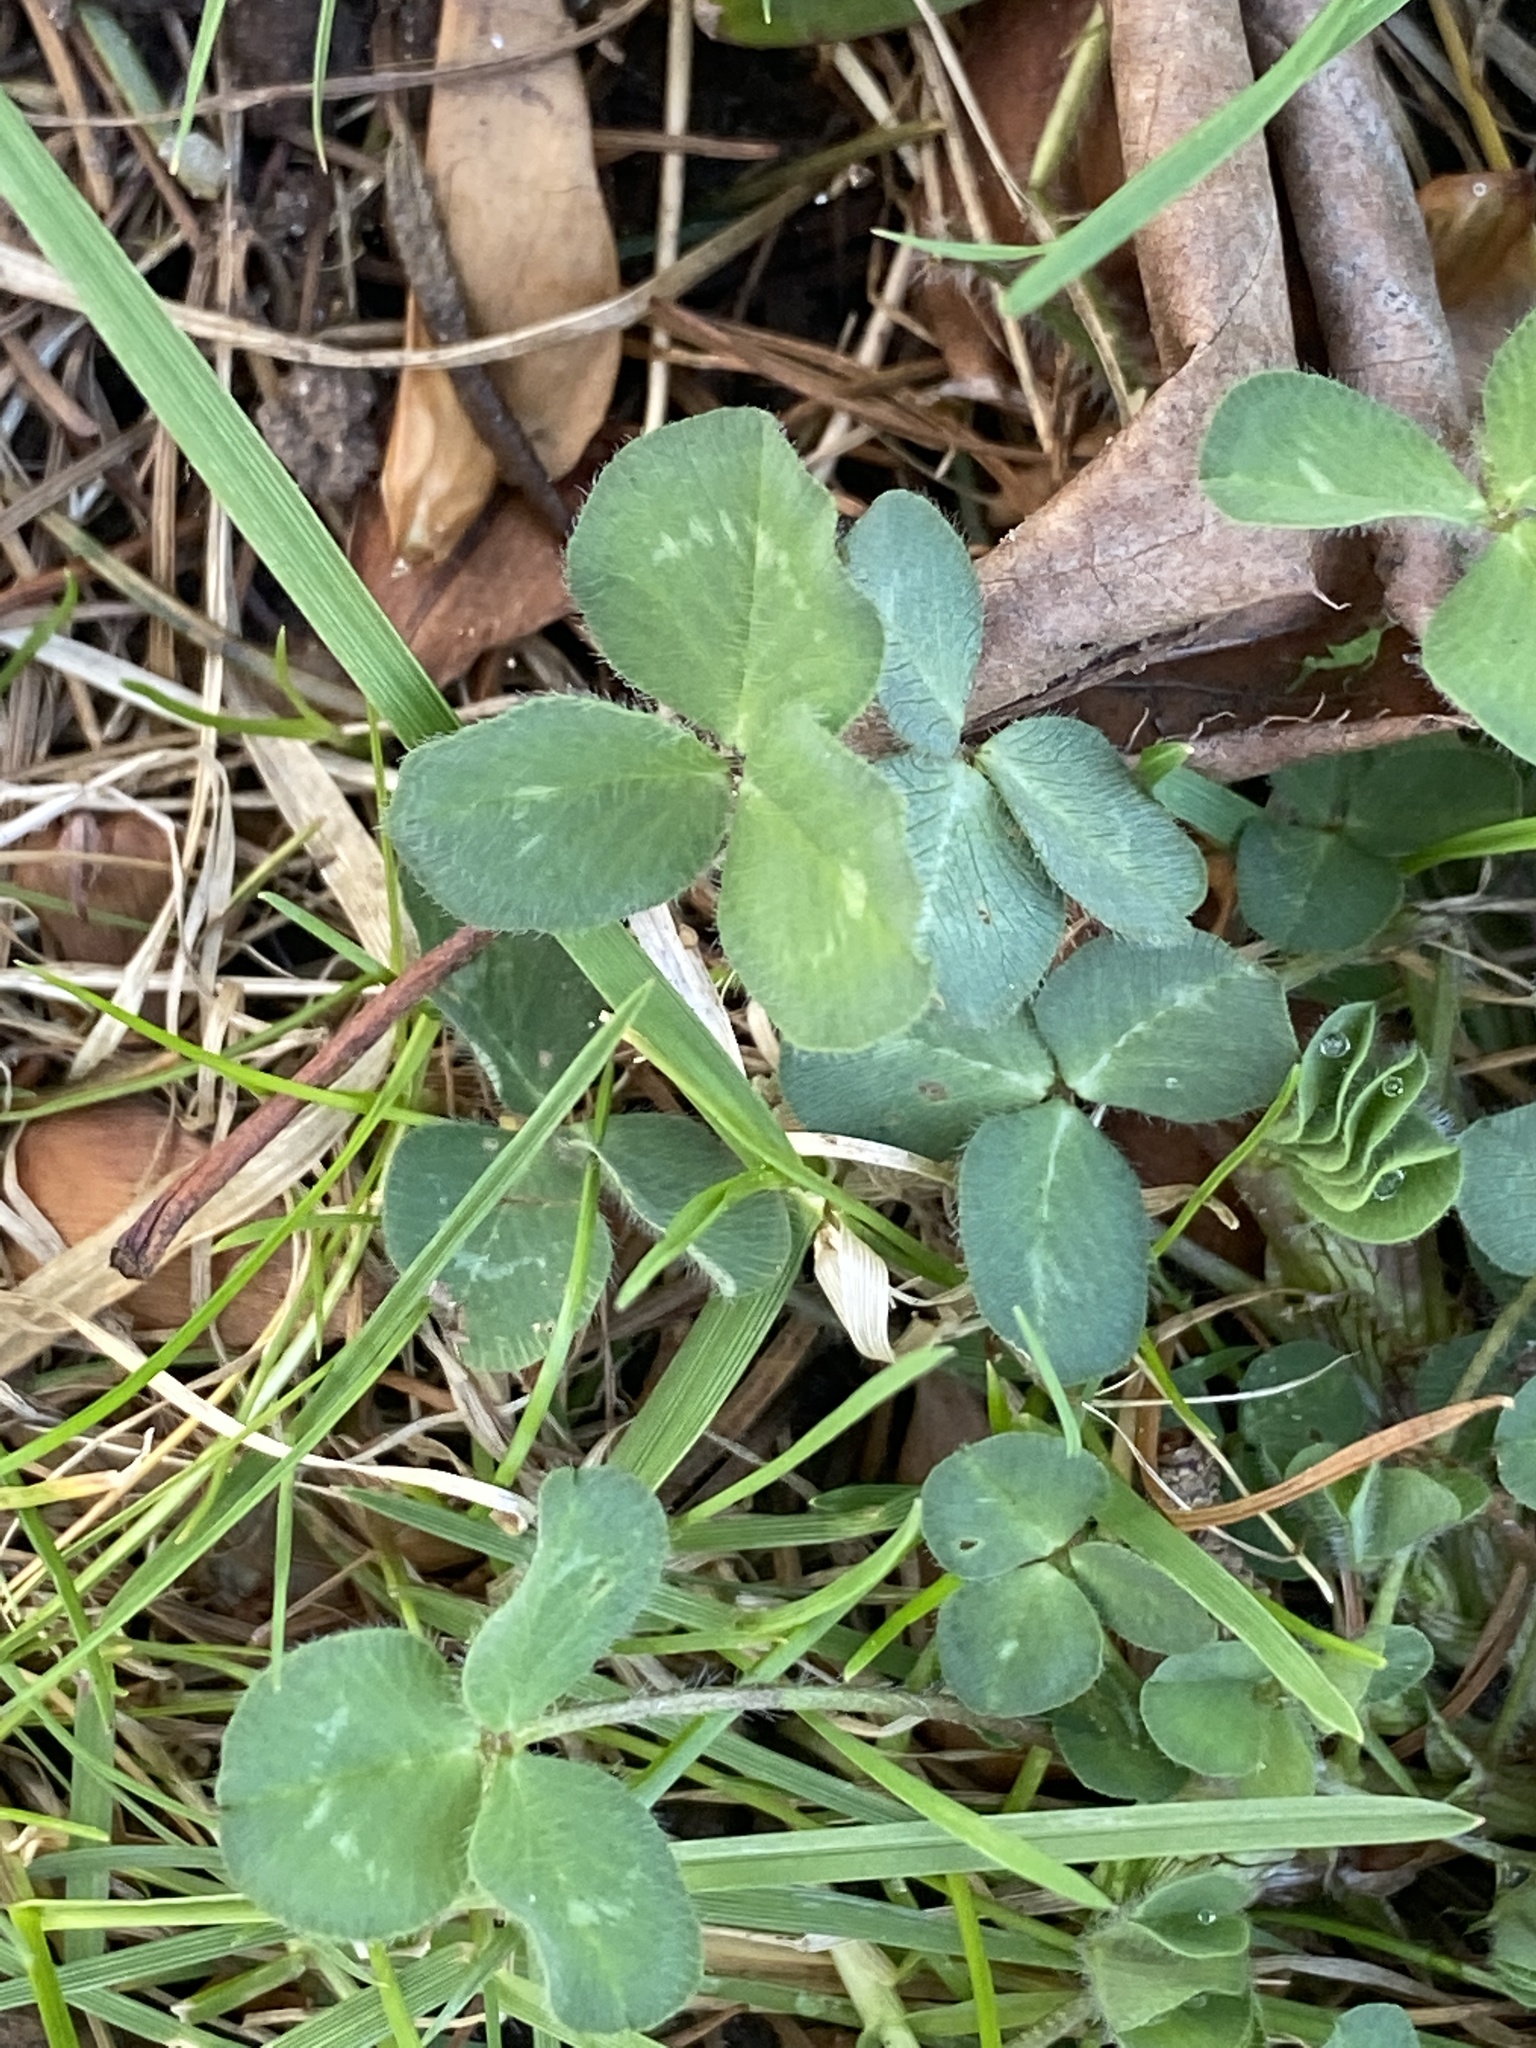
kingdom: Plantae
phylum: Tracheophyta
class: Magnoliopsida
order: Fabales
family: Fabaceae
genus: Trifolium
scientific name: Trifolium pratense
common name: Red clover
